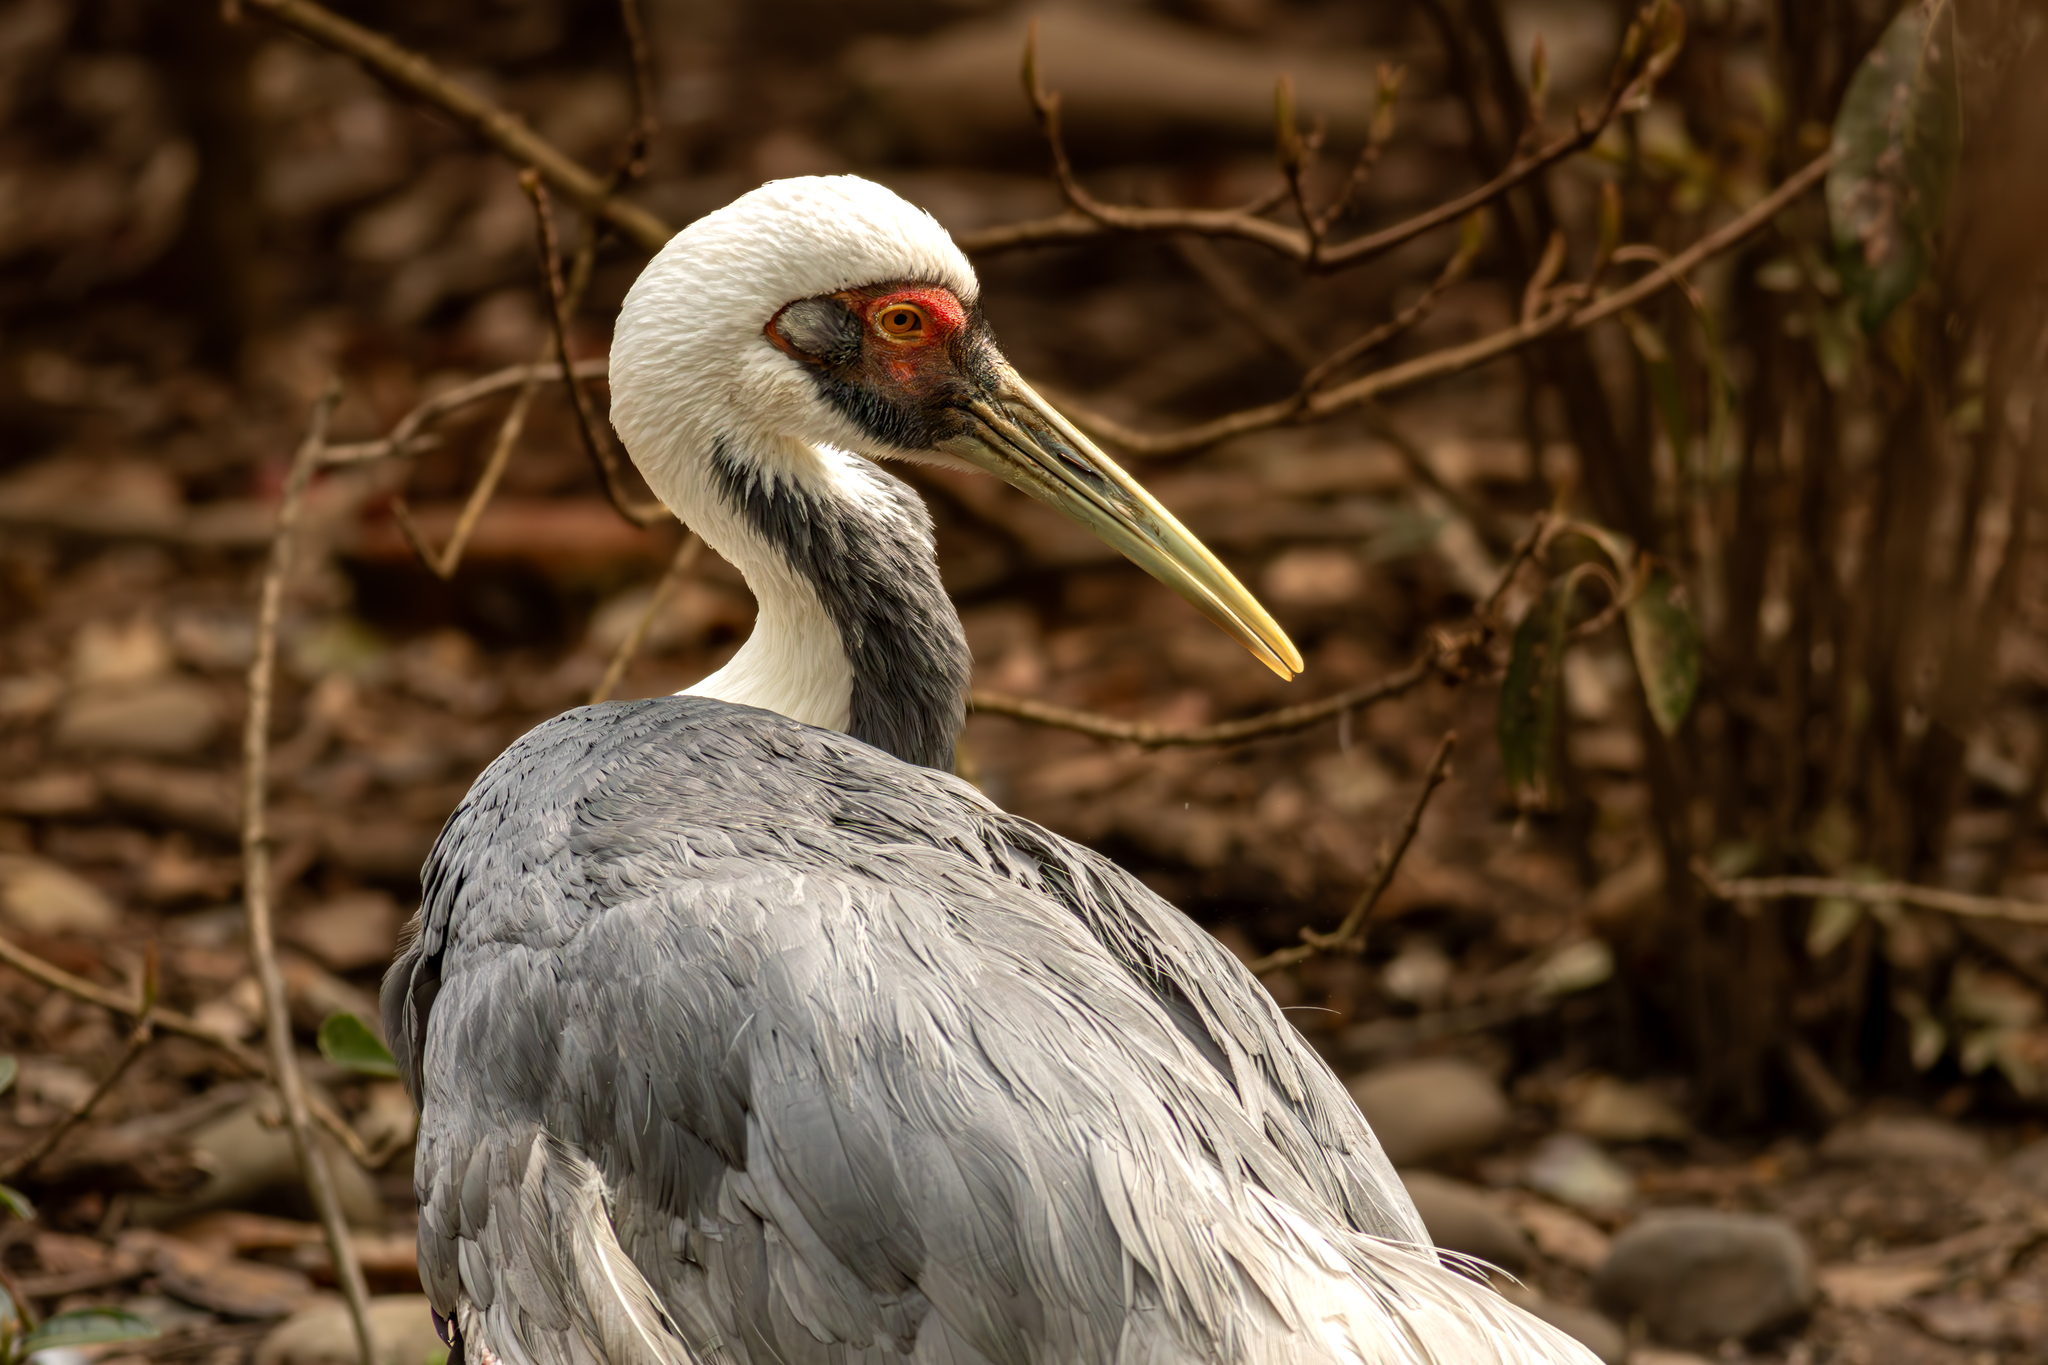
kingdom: Animalia
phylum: Chordata
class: Aves
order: Gruiformes
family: Gruidae
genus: Grus
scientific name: Grus vipio
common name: White-naped crane
